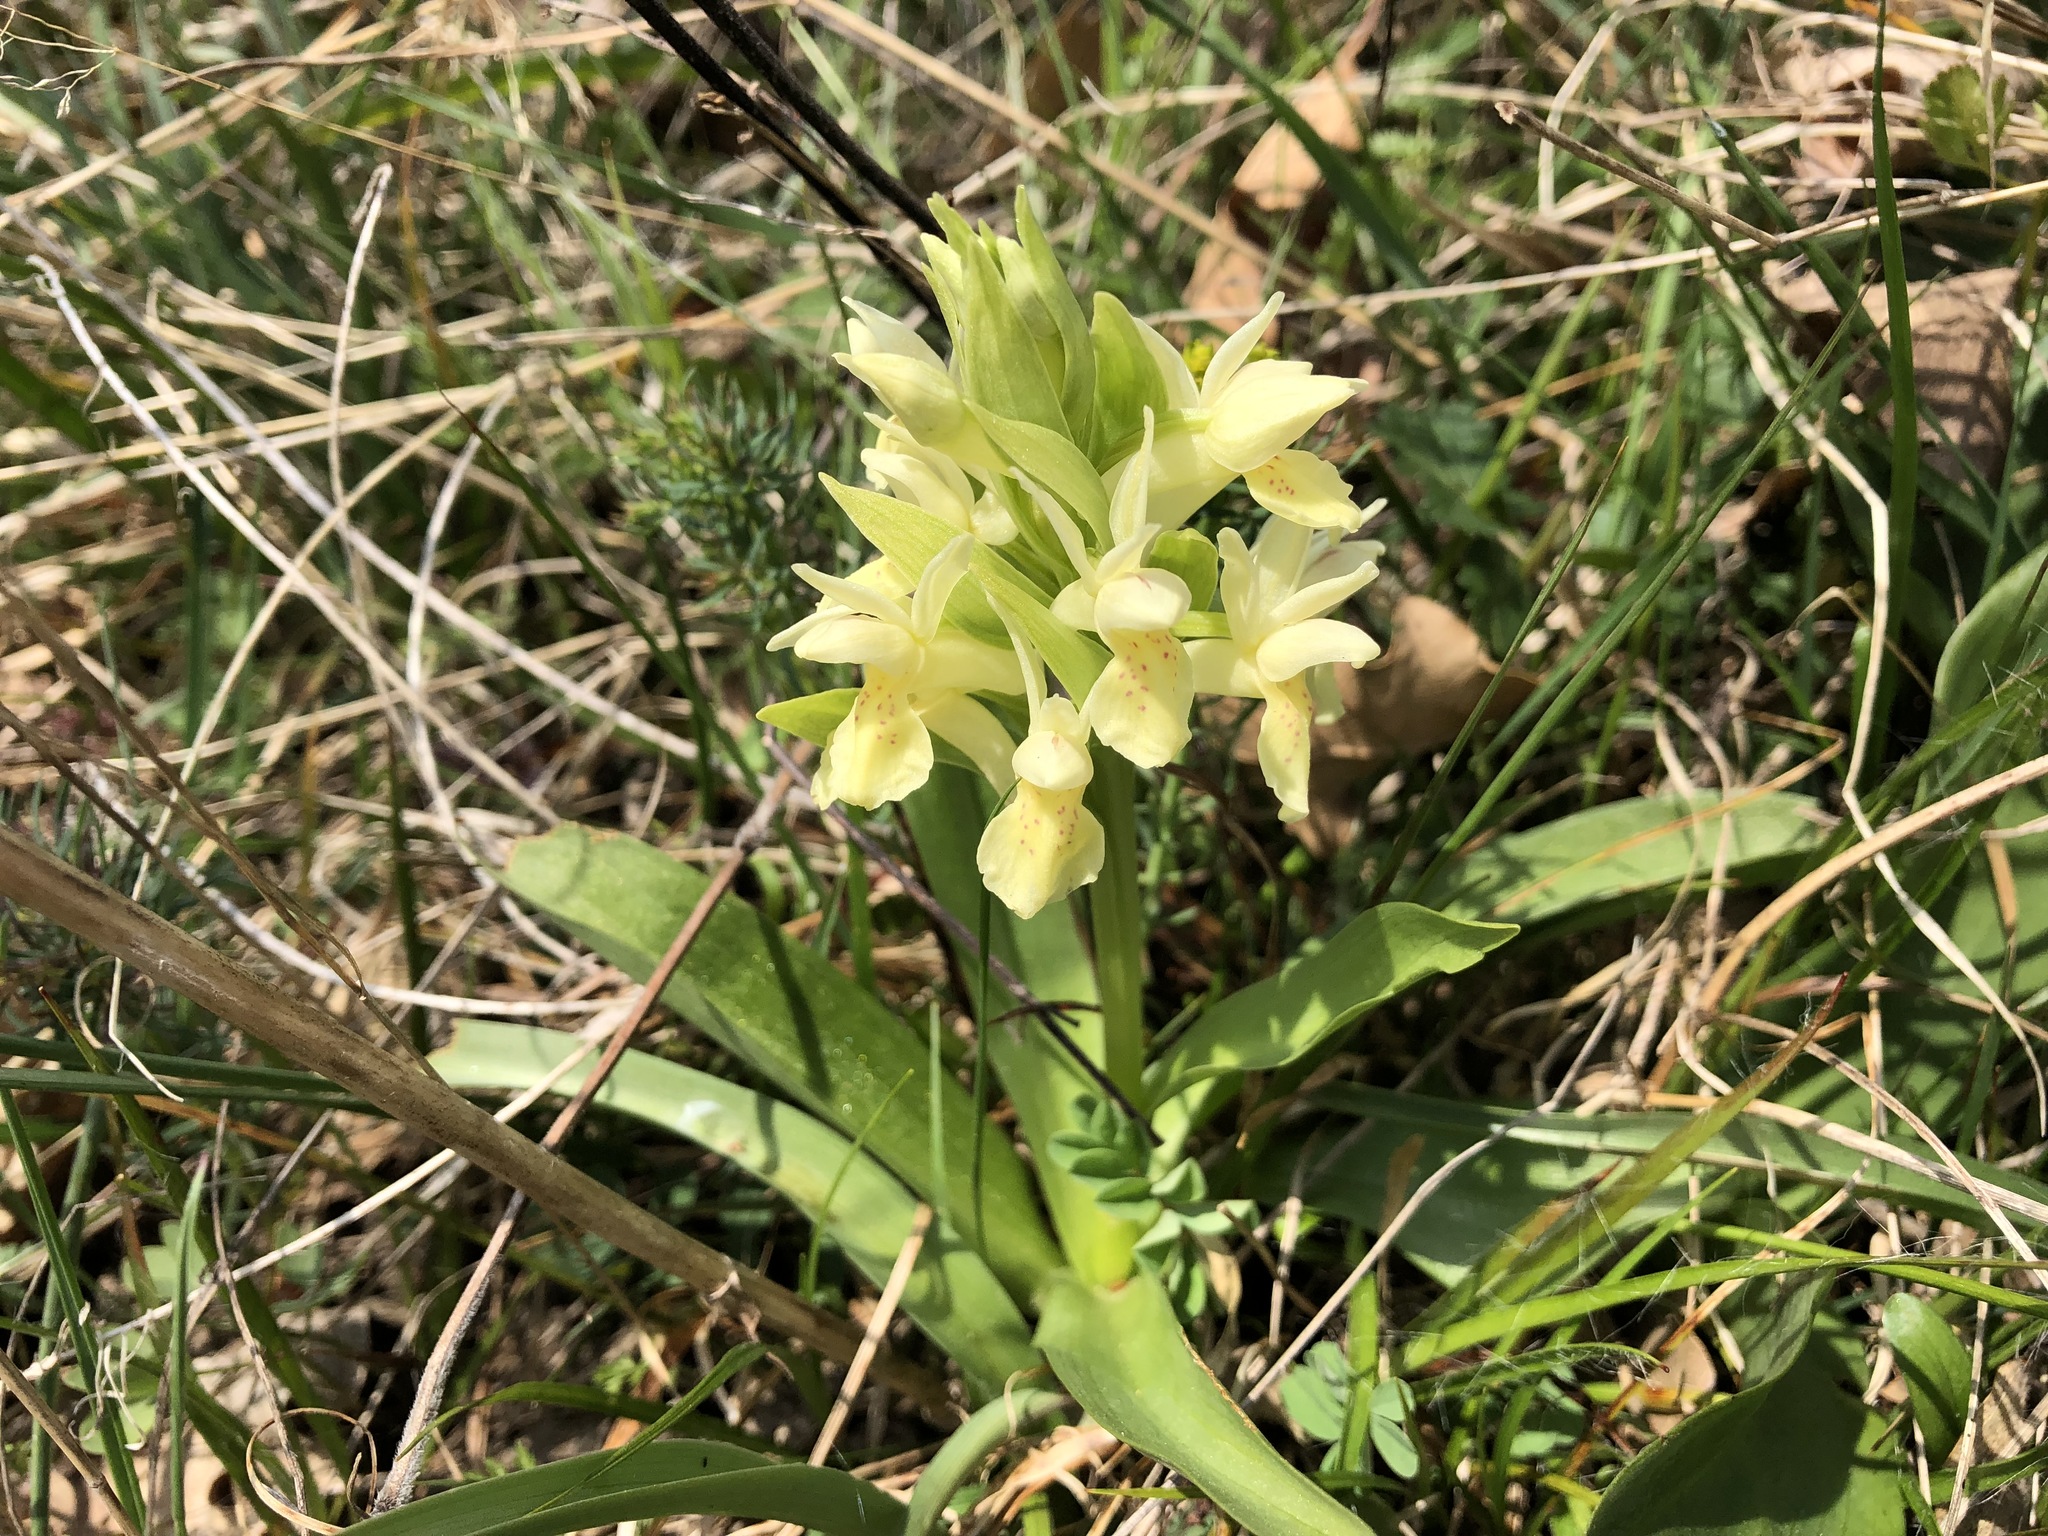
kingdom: Plantae
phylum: Tracheophyta
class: Liliopsida
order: Asparagales
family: Orchidaceae
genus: Dactylorhiza
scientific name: Dactylorhiza sambucina
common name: Elder-flowered orchid
